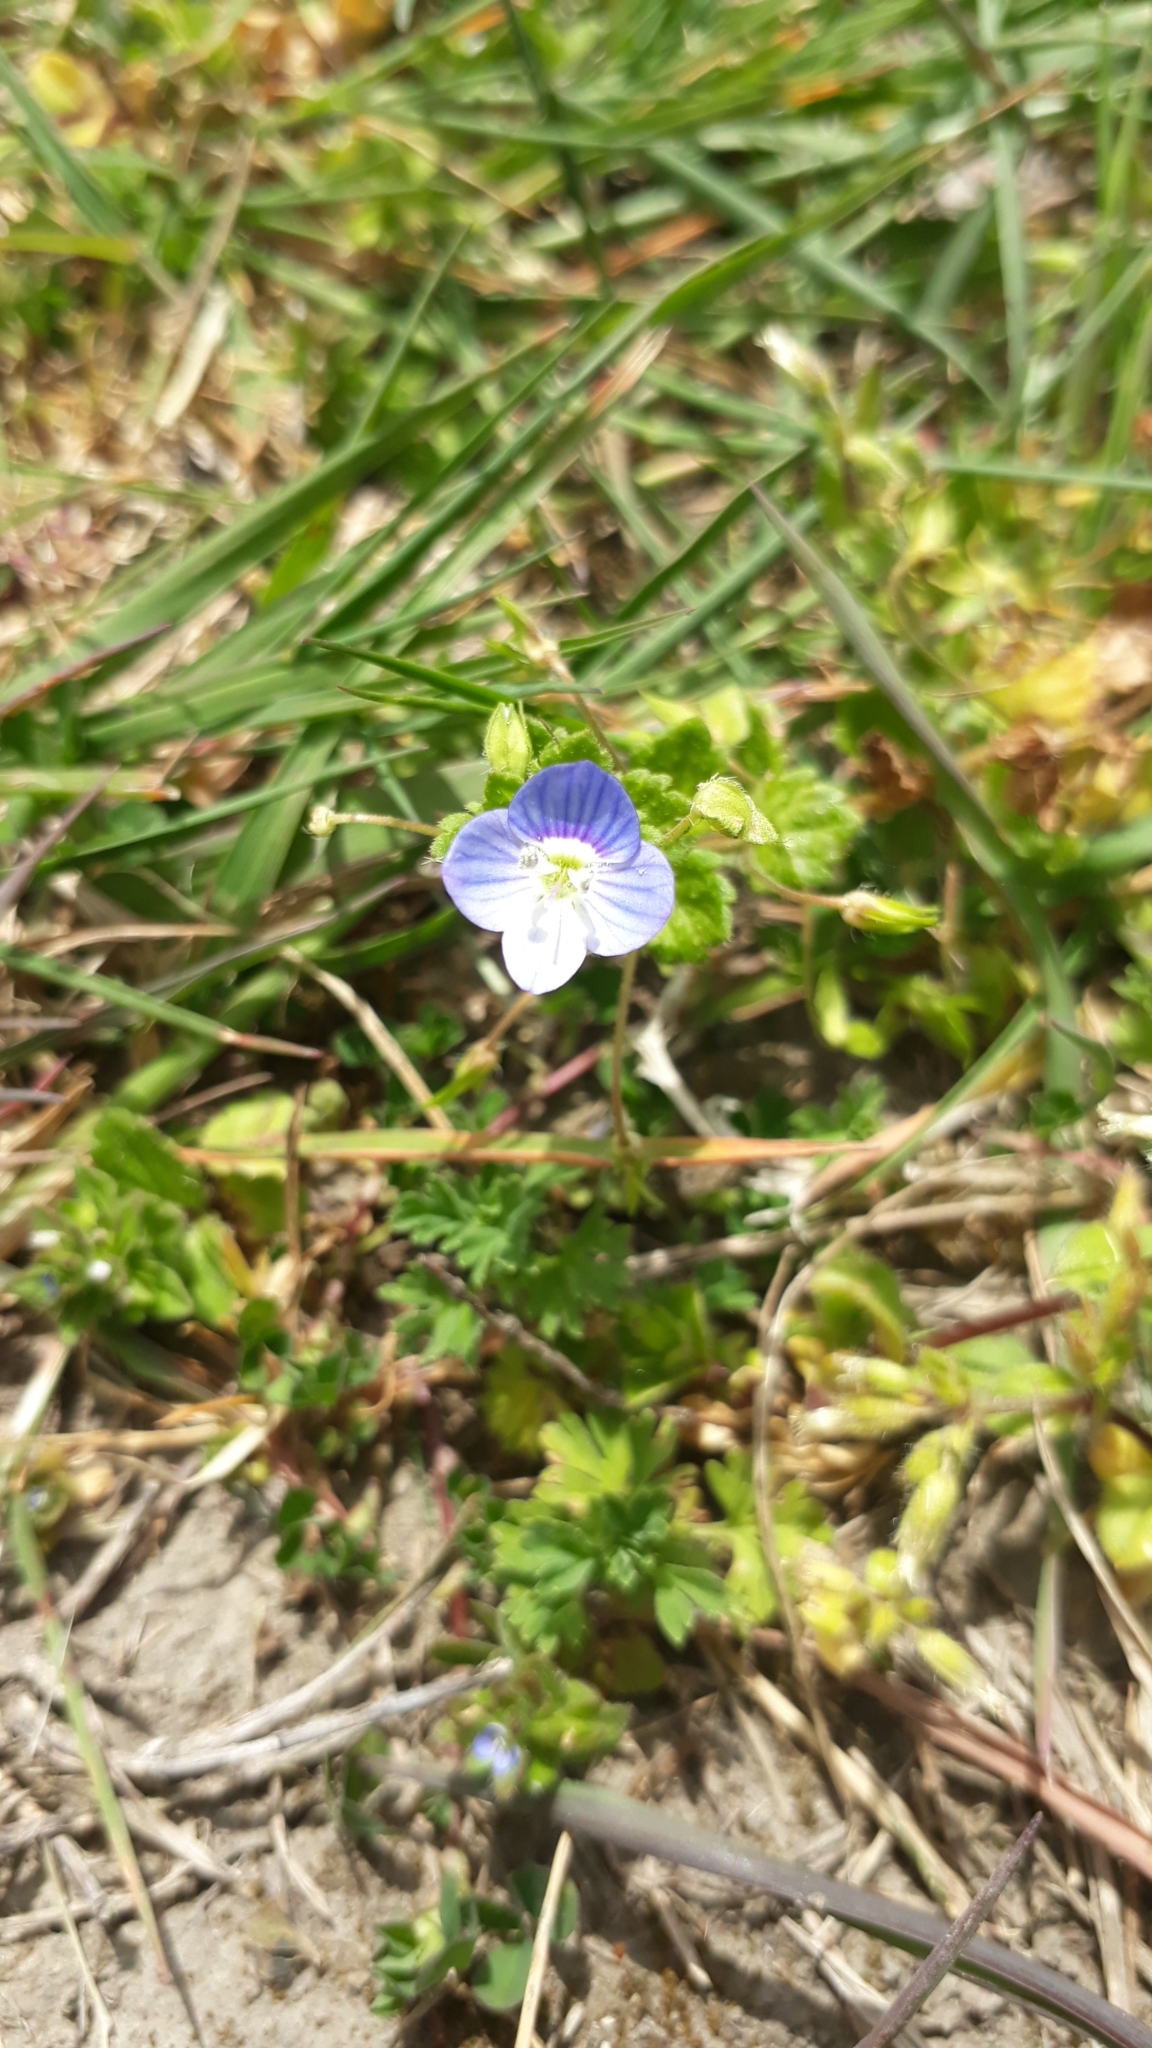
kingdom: Plantae
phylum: Tracheophyta
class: Magnoliopsida
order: Lamiales
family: Plantaginaceae
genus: Veronica
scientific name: Veronica persica
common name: Common field-speedwell
